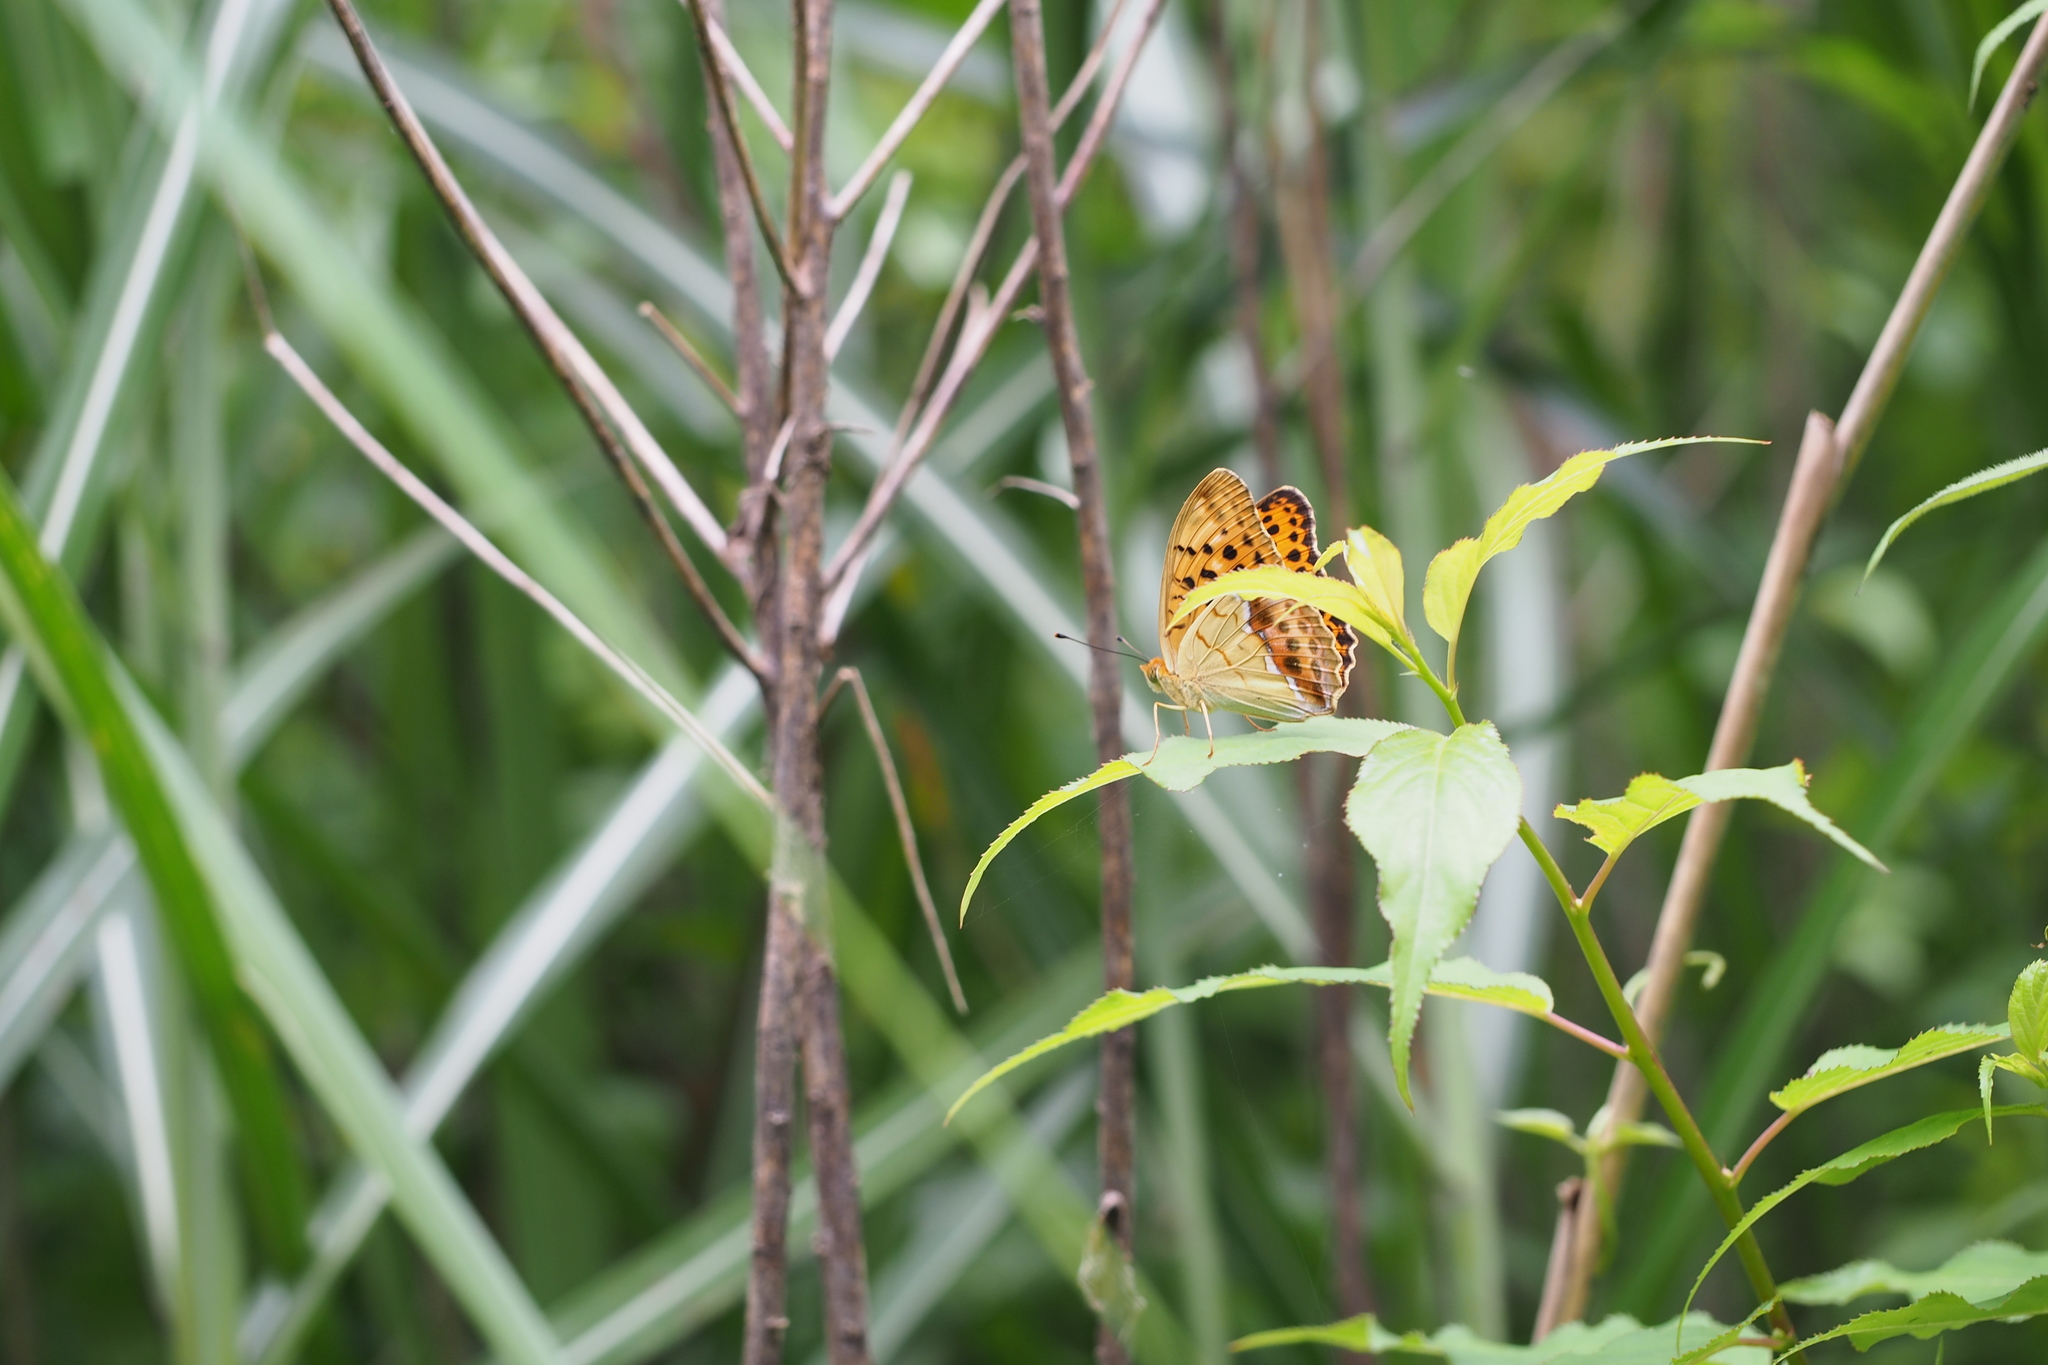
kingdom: Animalia
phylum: Arthropoda
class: Insecta
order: Lepidoptera
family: Nymphalidae
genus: Argyronome
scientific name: Argyronome laodice
